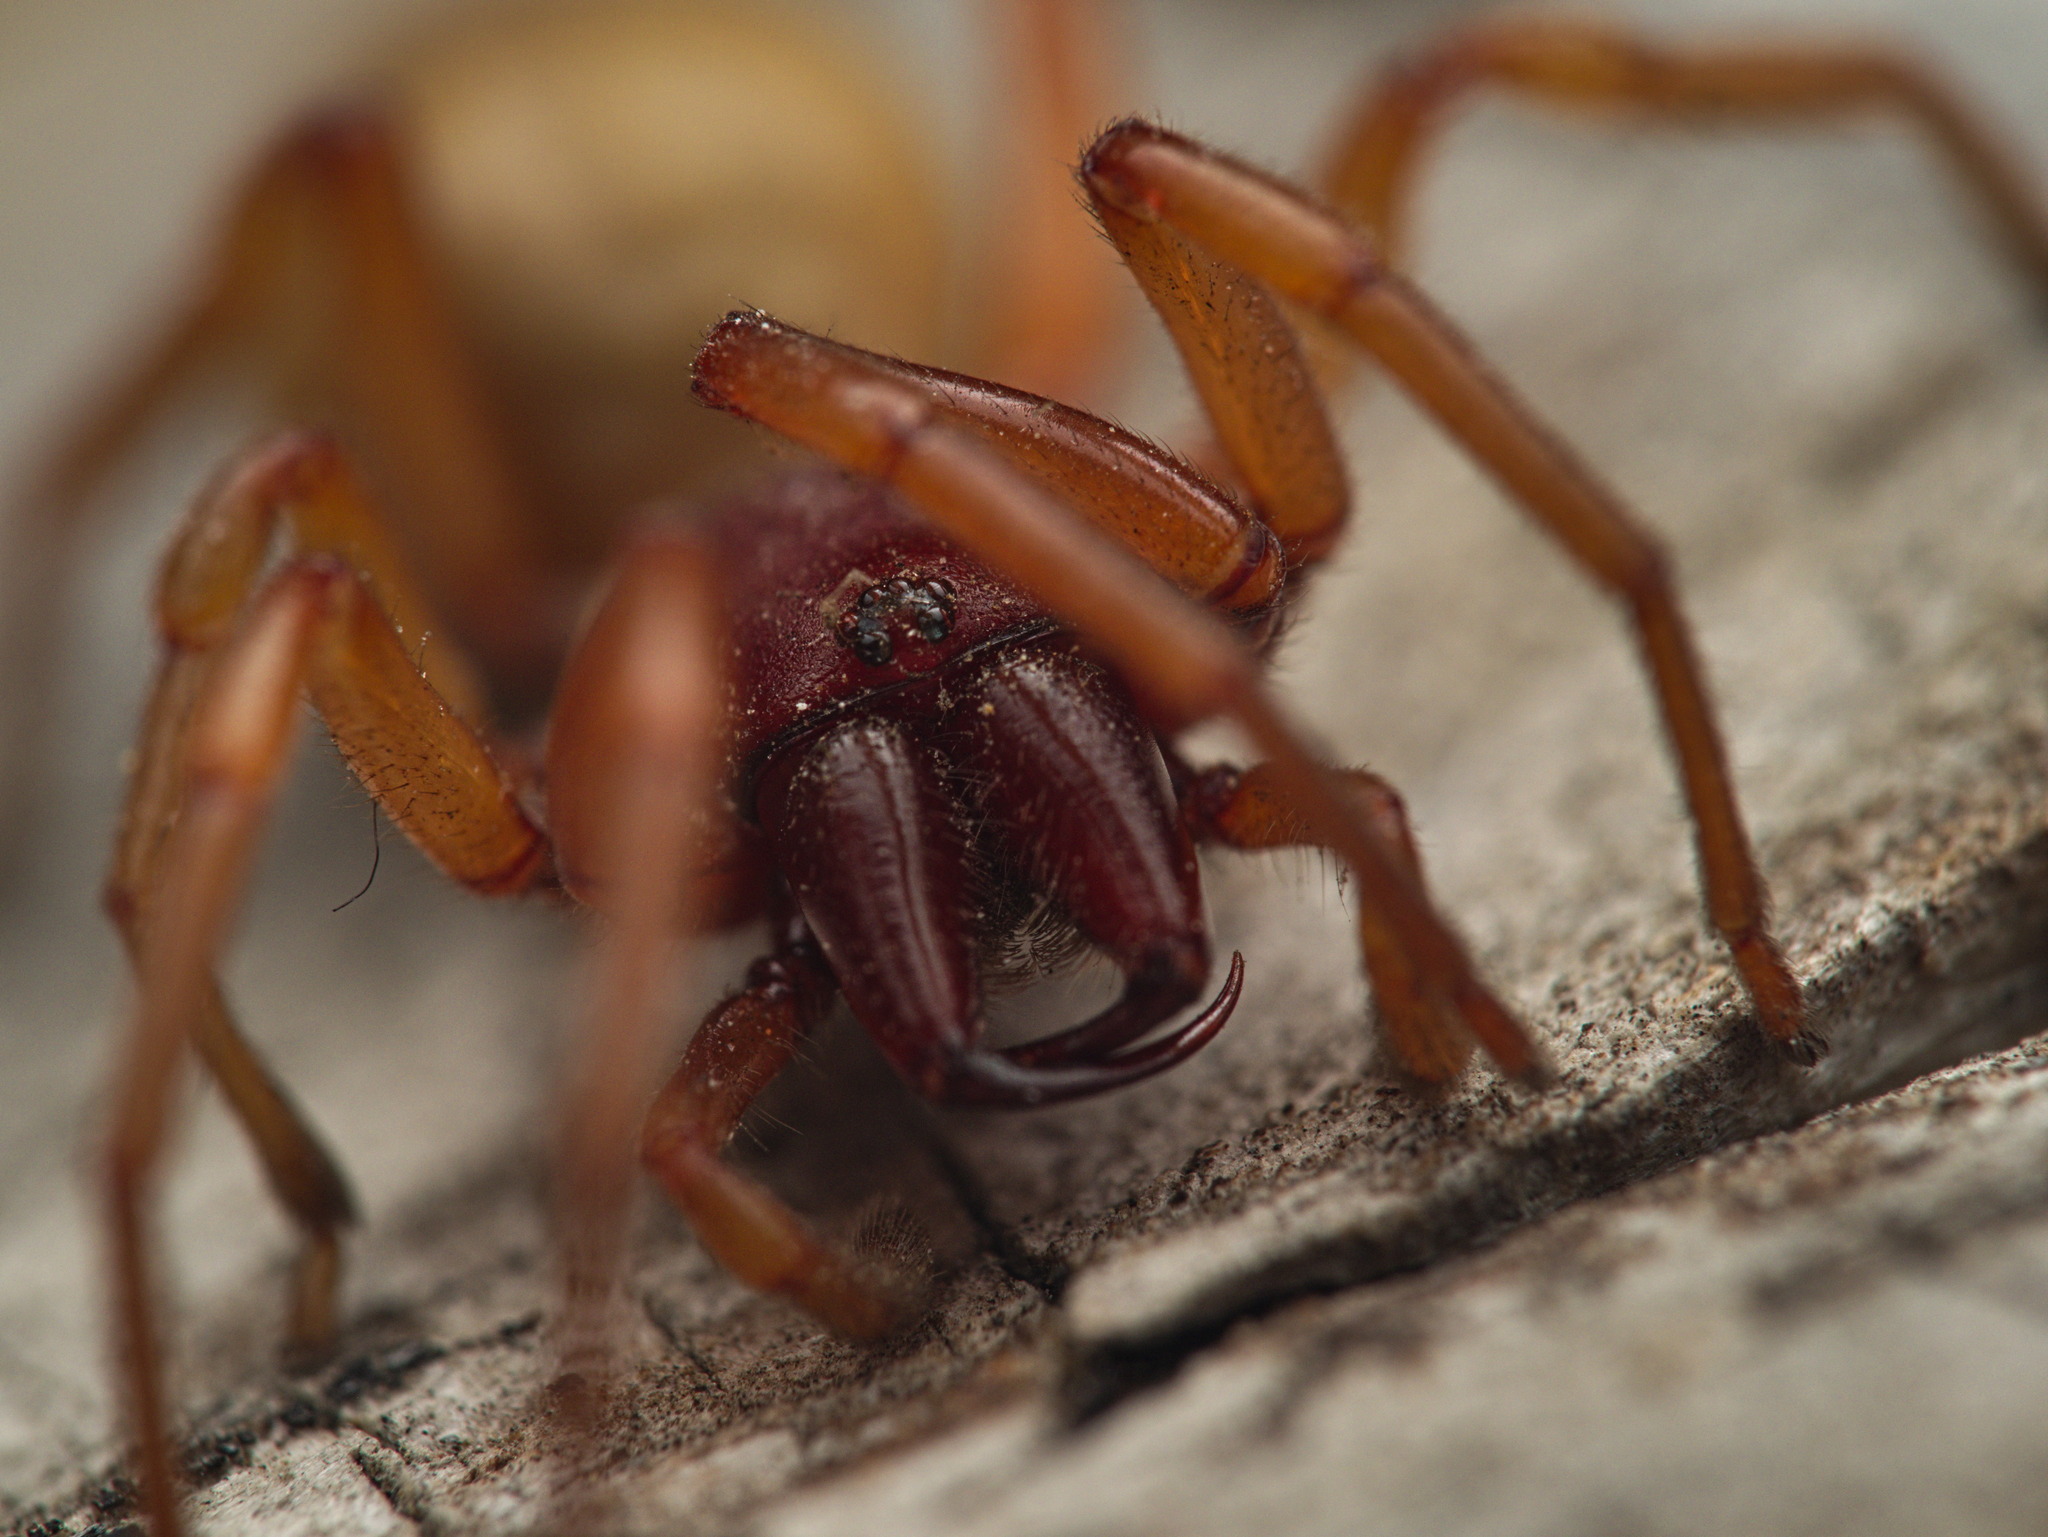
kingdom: Animalia
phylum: Arthropoda
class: Arachnida
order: Araneae
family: Dysderidae
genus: Dysdera
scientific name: Dysdera crocata
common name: Woodlouse spider
